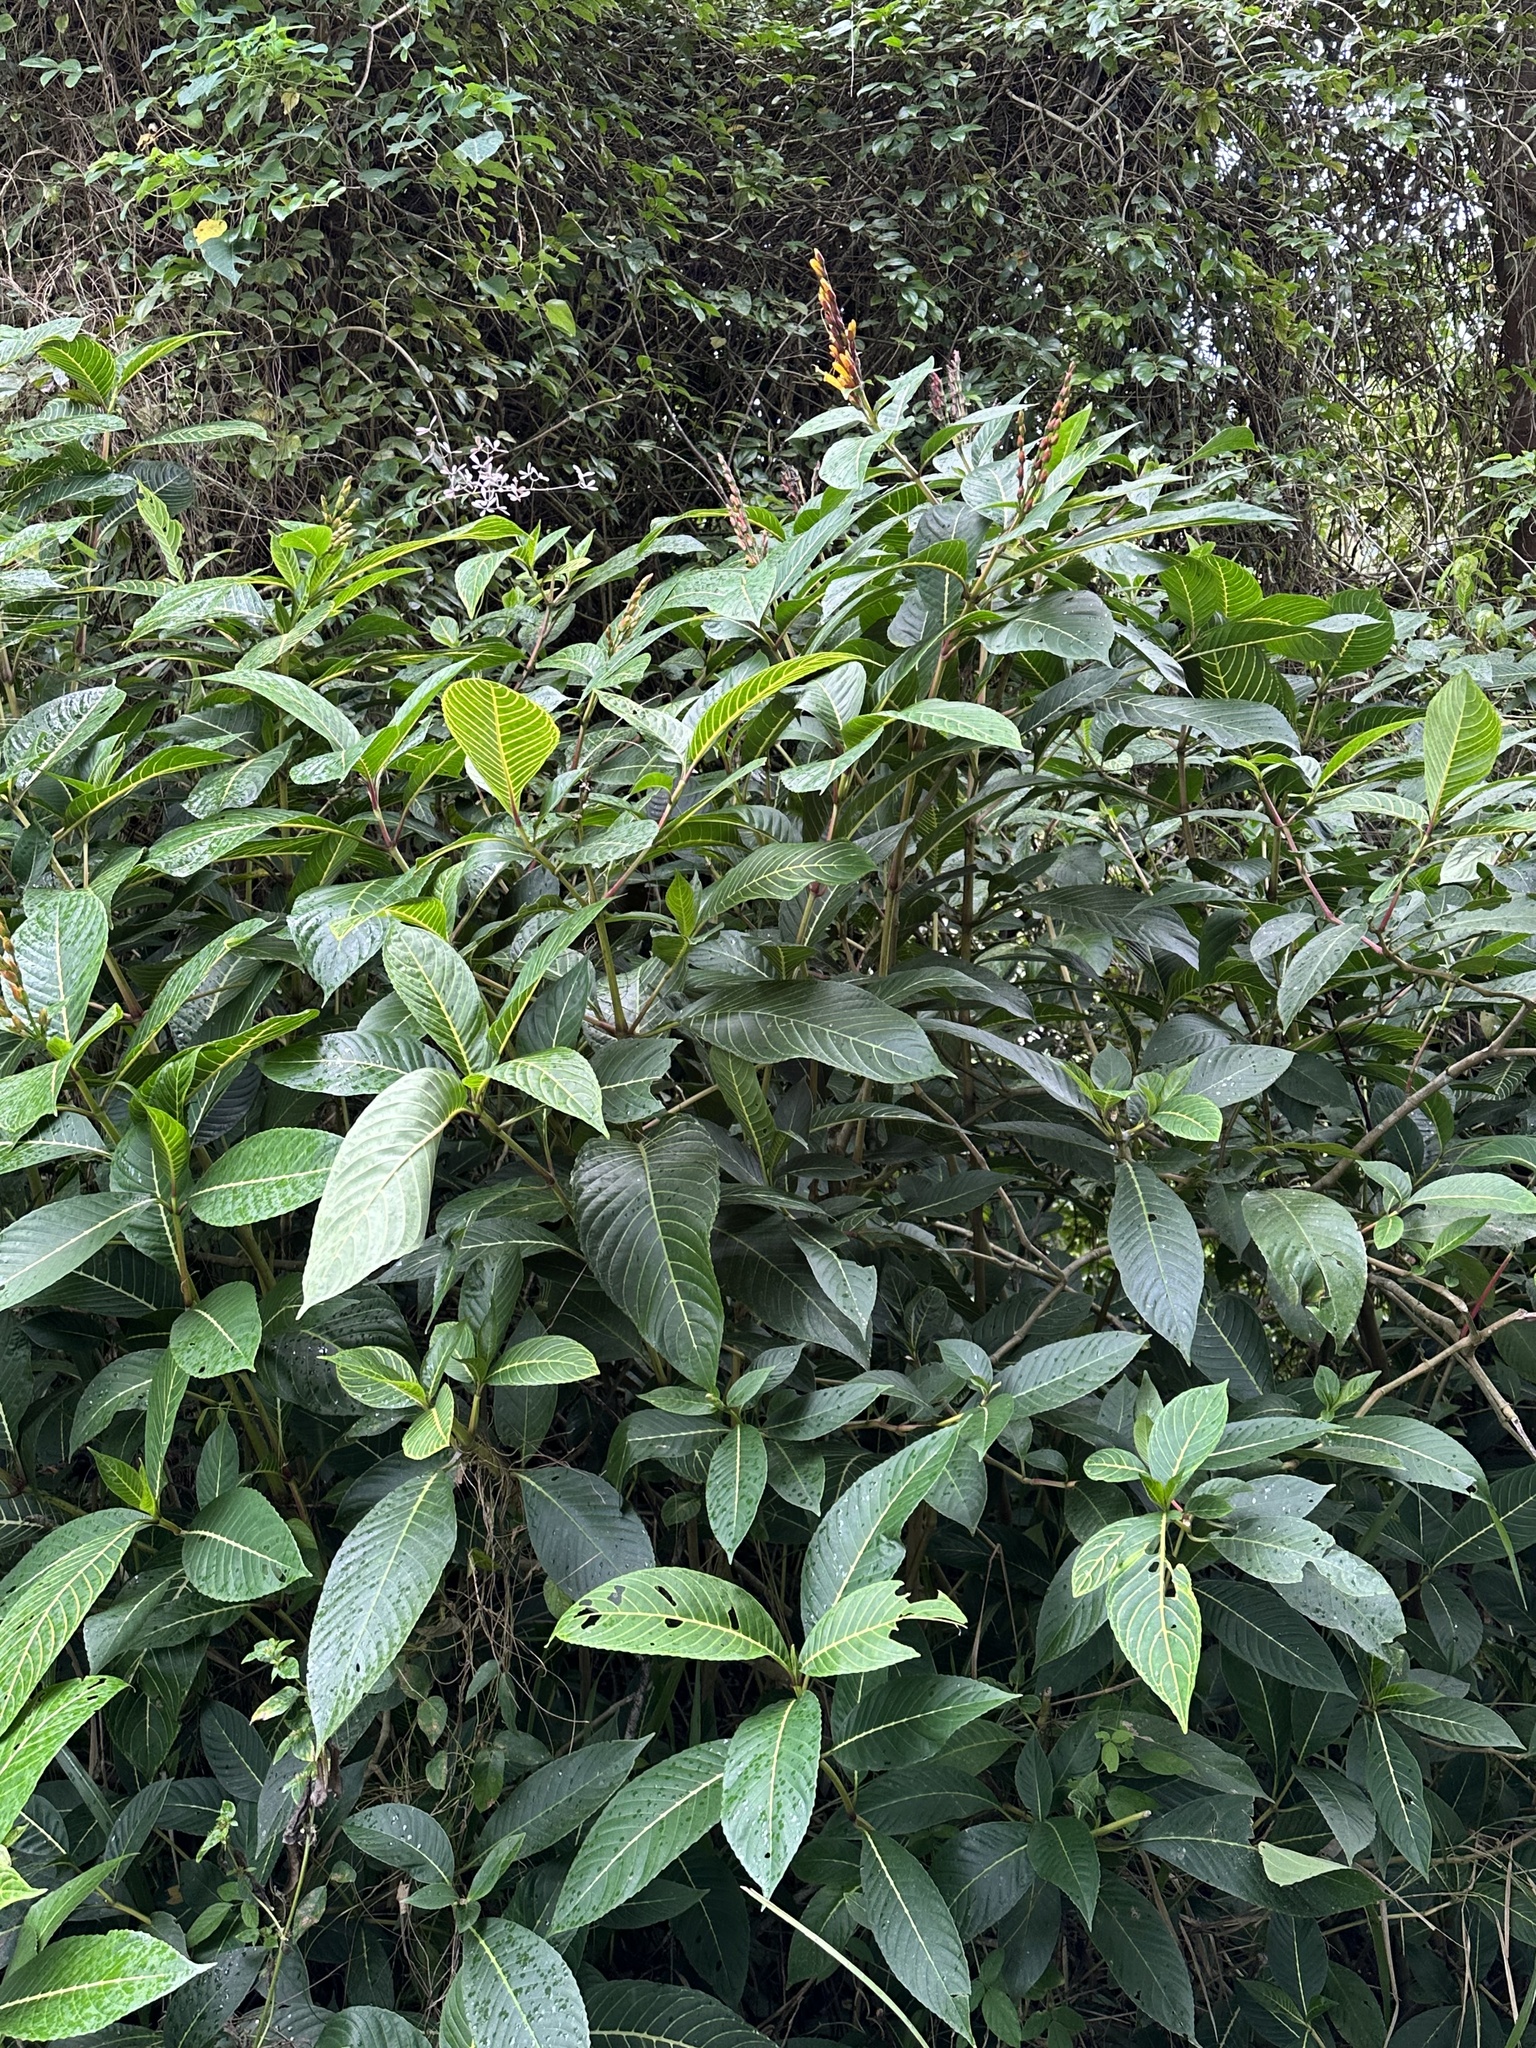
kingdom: Plantae
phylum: Tracheophyta
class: Magnoliopsida
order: Lamiales
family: Acanthaceae
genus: Sanchezia
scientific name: Sanchezia parvibracteata
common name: Sanchezia
